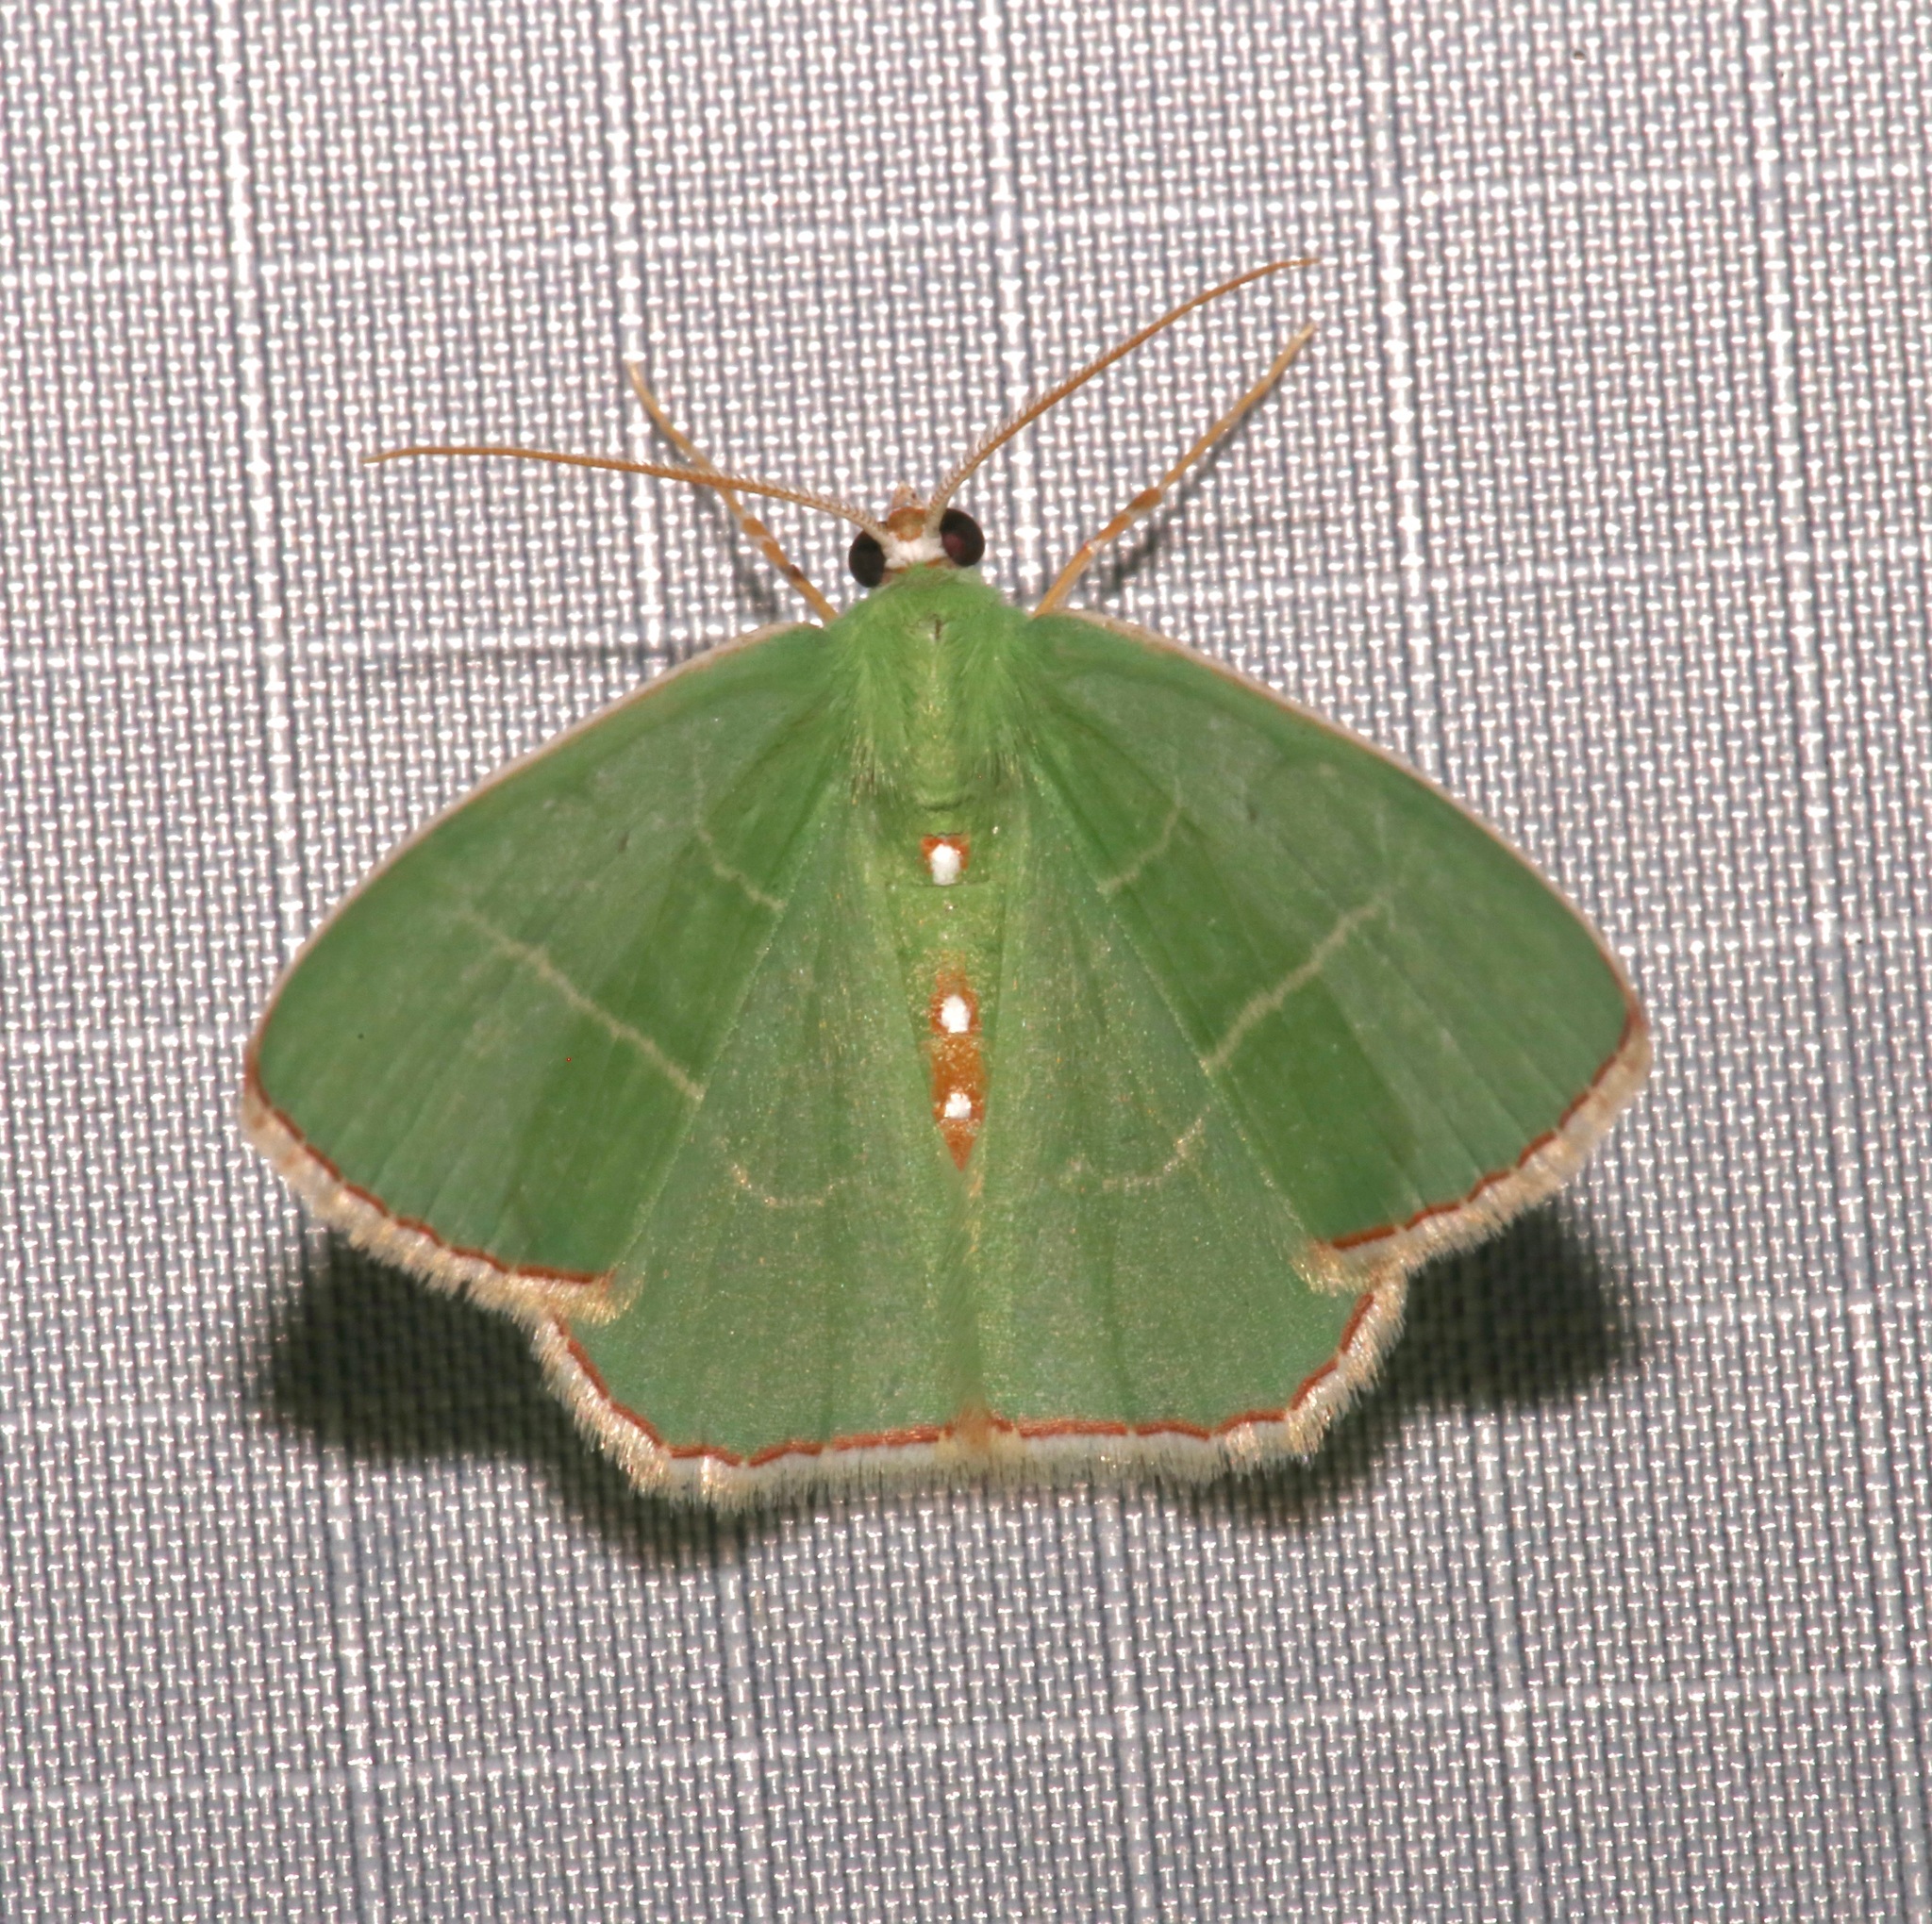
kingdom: Animalia
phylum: Arthropoda
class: Insecta
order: Lepidoptera
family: Geometridae
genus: Nemoria
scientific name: Nemoria zelotes
